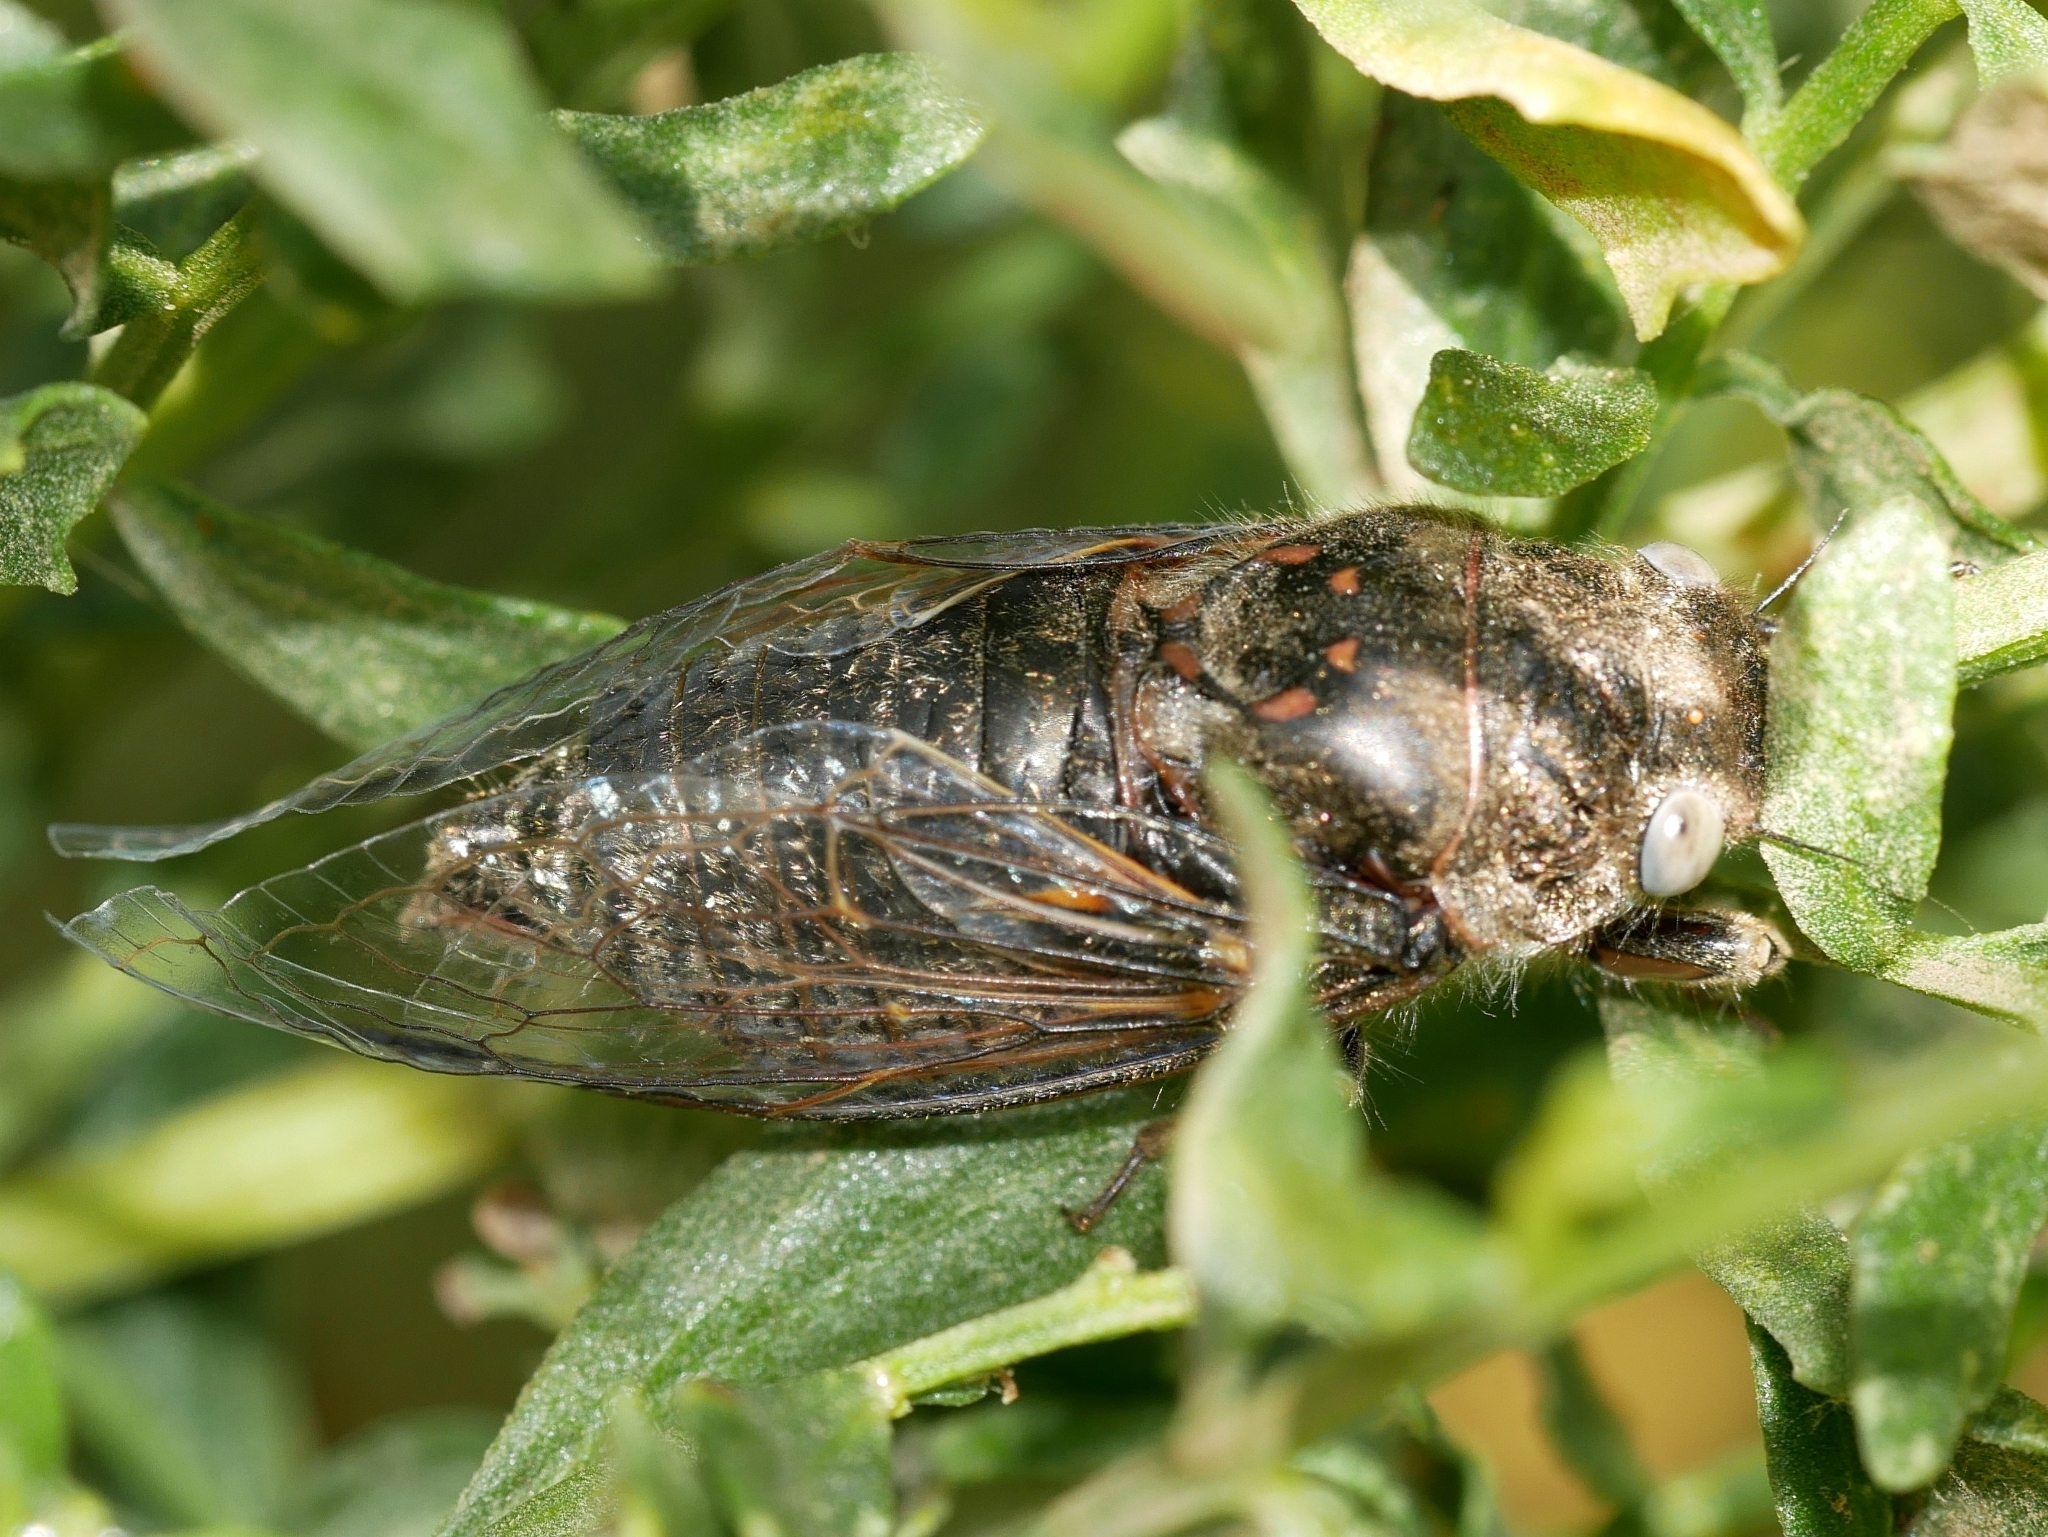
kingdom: Animalia
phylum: Arthropoda
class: Insecta
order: Hemiptera
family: Cicadidae
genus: Tibicinoides
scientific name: Tibicinoides
